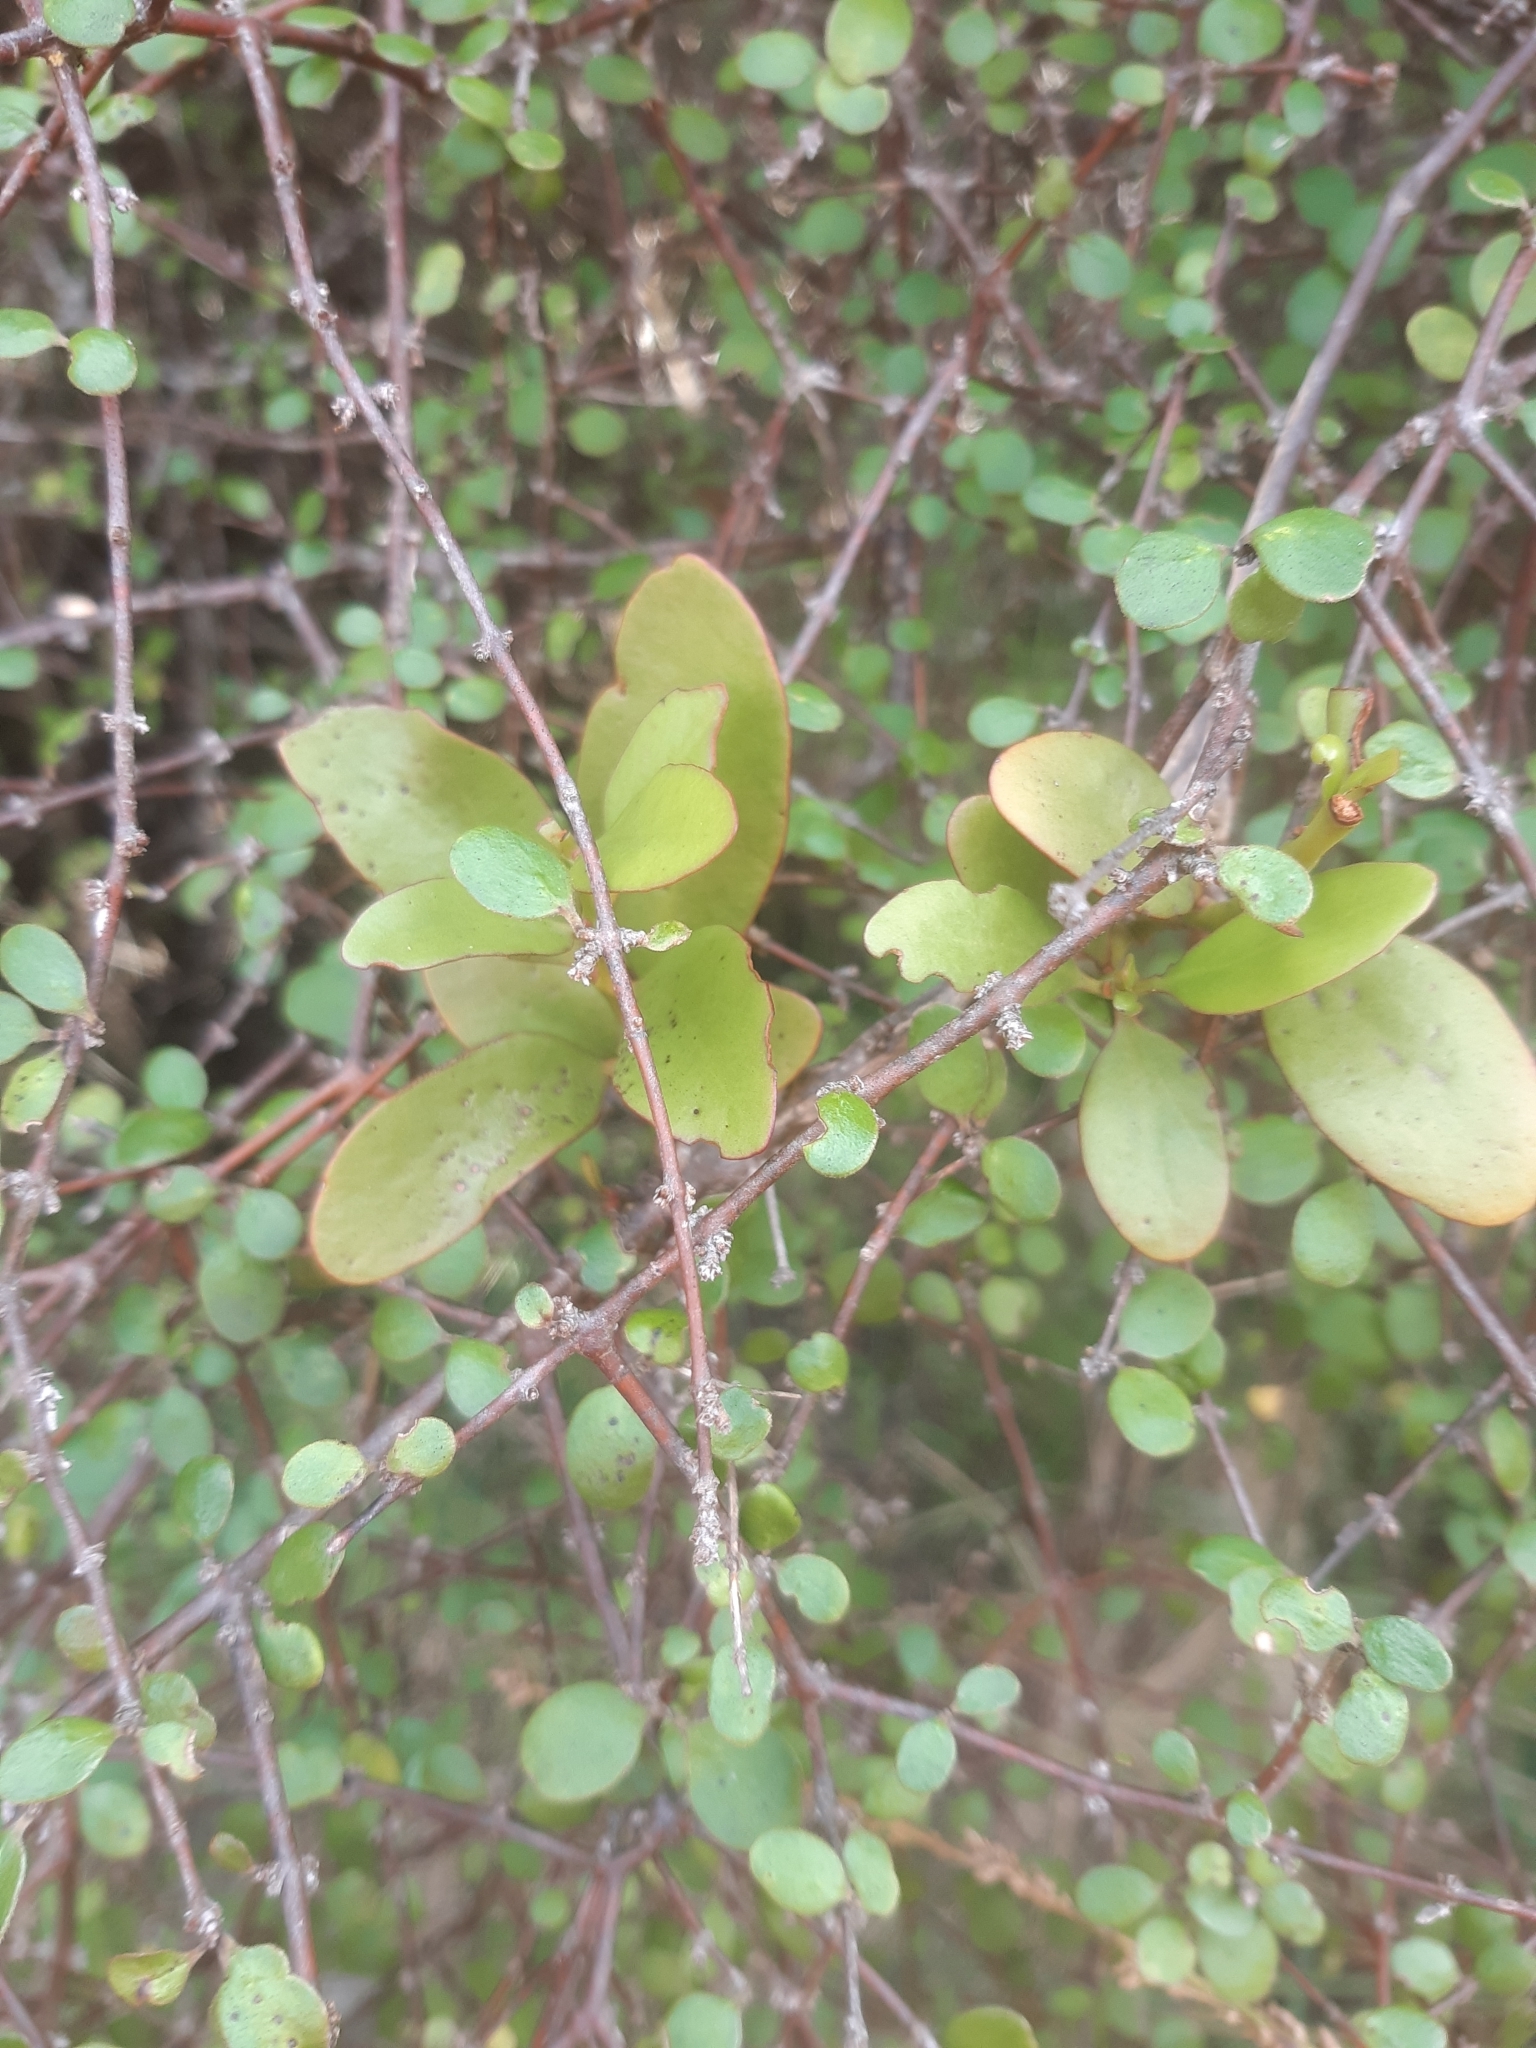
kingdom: Plantae
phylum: Tracheophyta
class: Magnoliopsida
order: Santalales
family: Loranthaceae
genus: Ileostylus
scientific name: Ileostylus micranthus
